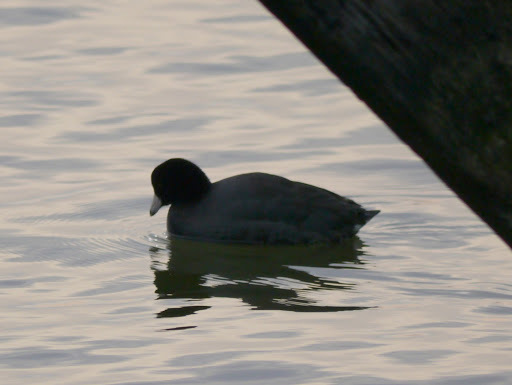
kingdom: Animalia
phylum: Chordata
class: Aves
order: Gruiformes
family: Rallidae
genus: Fulica
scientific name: Fulica americana
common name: American coot
